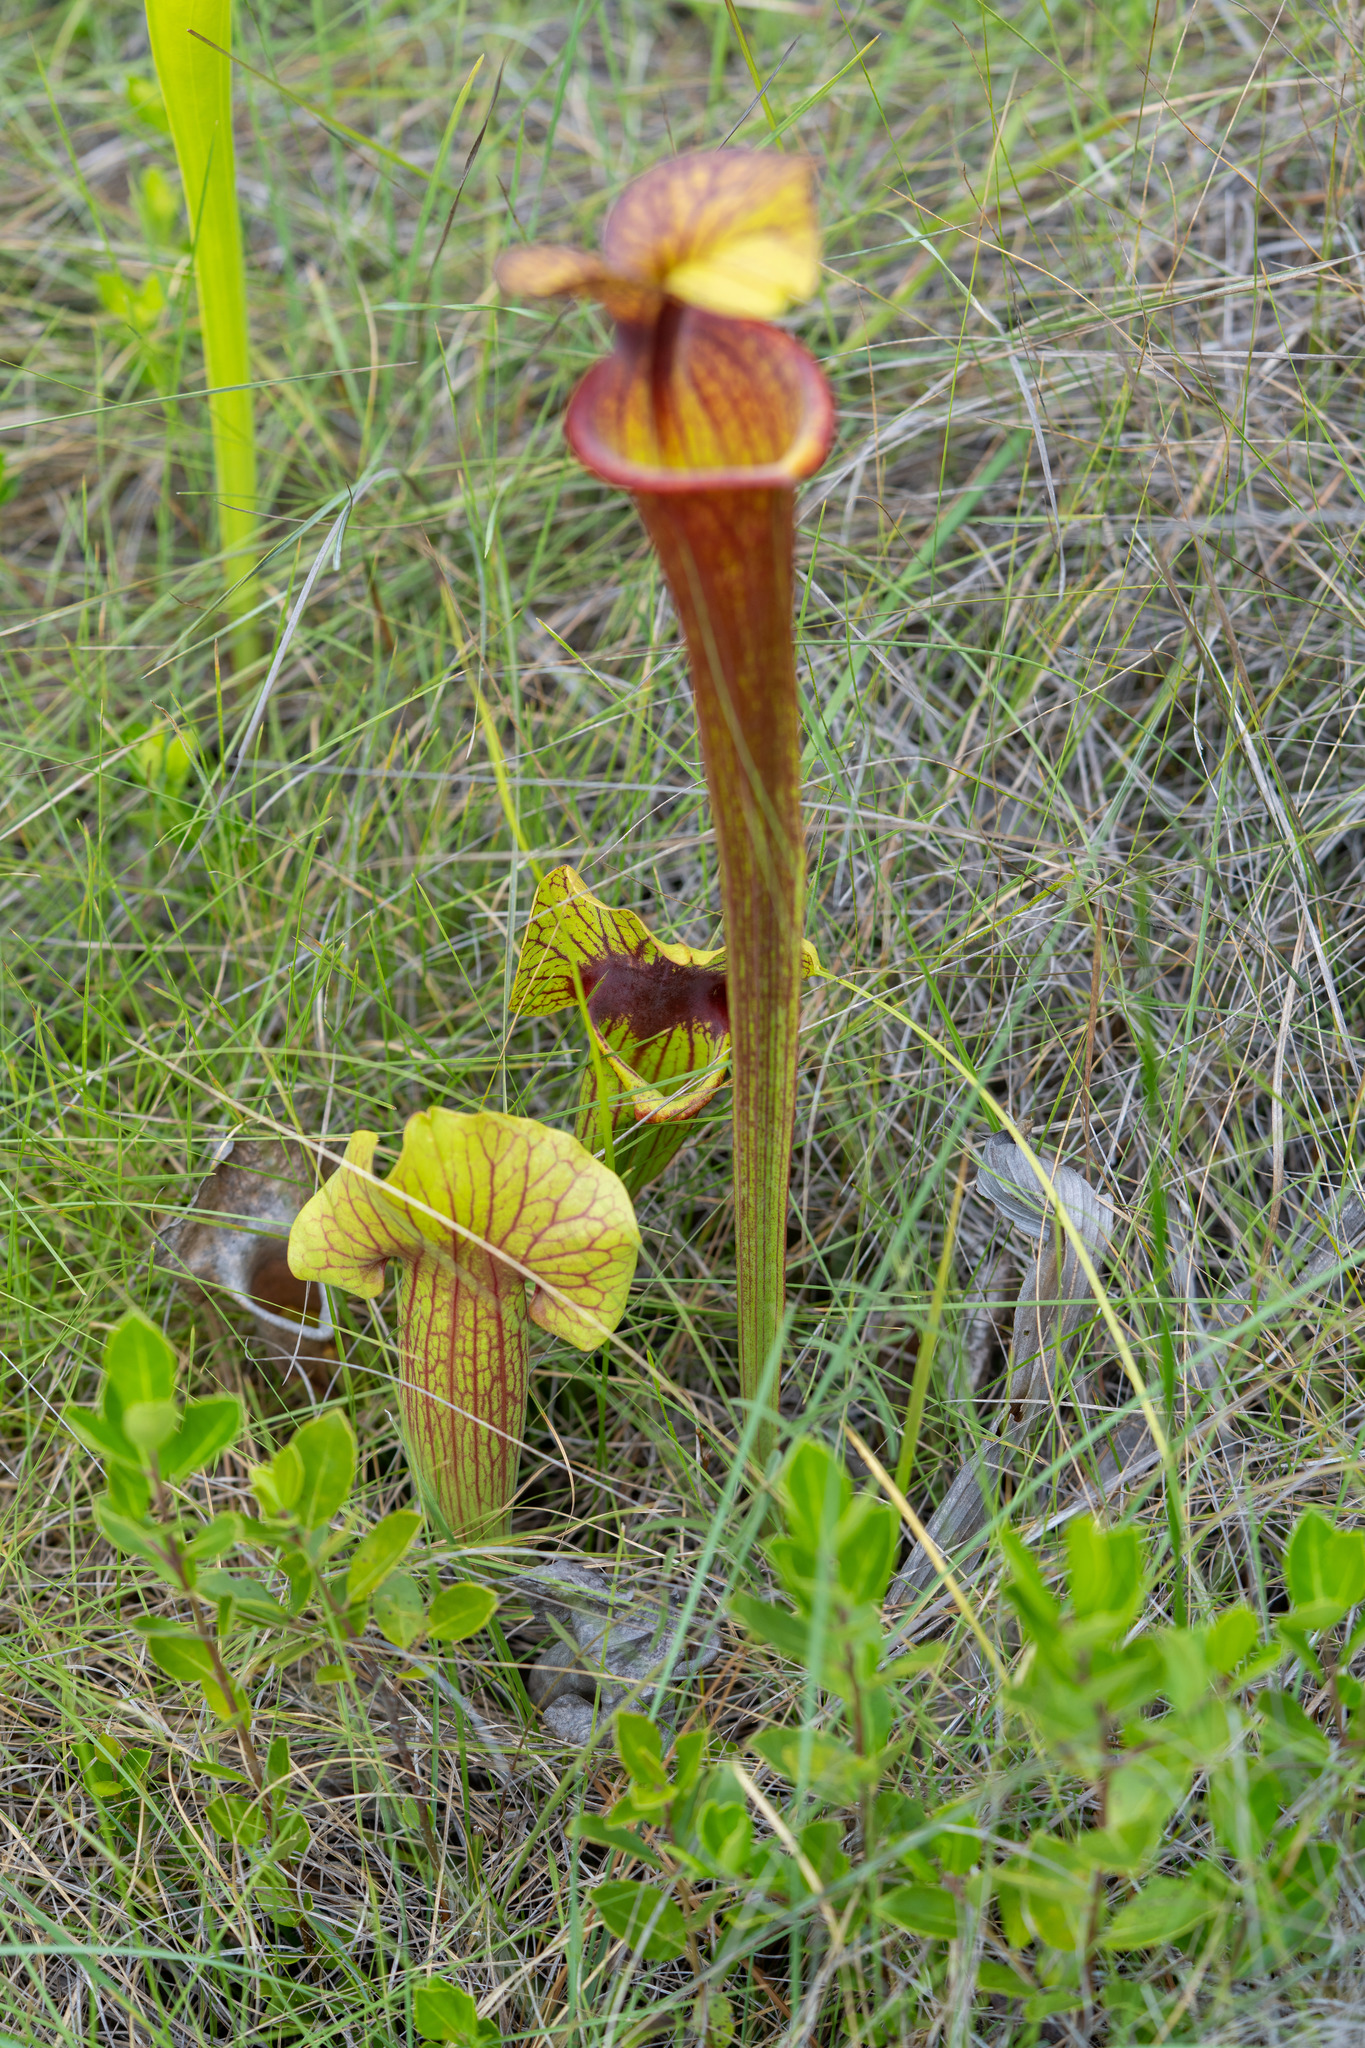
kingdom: Plantae
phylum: Tracheophyta
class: Magnoliopsida
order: Ericales
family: Sarraceniaceae
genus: Sarracenia
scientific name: Sarracenia naczii
